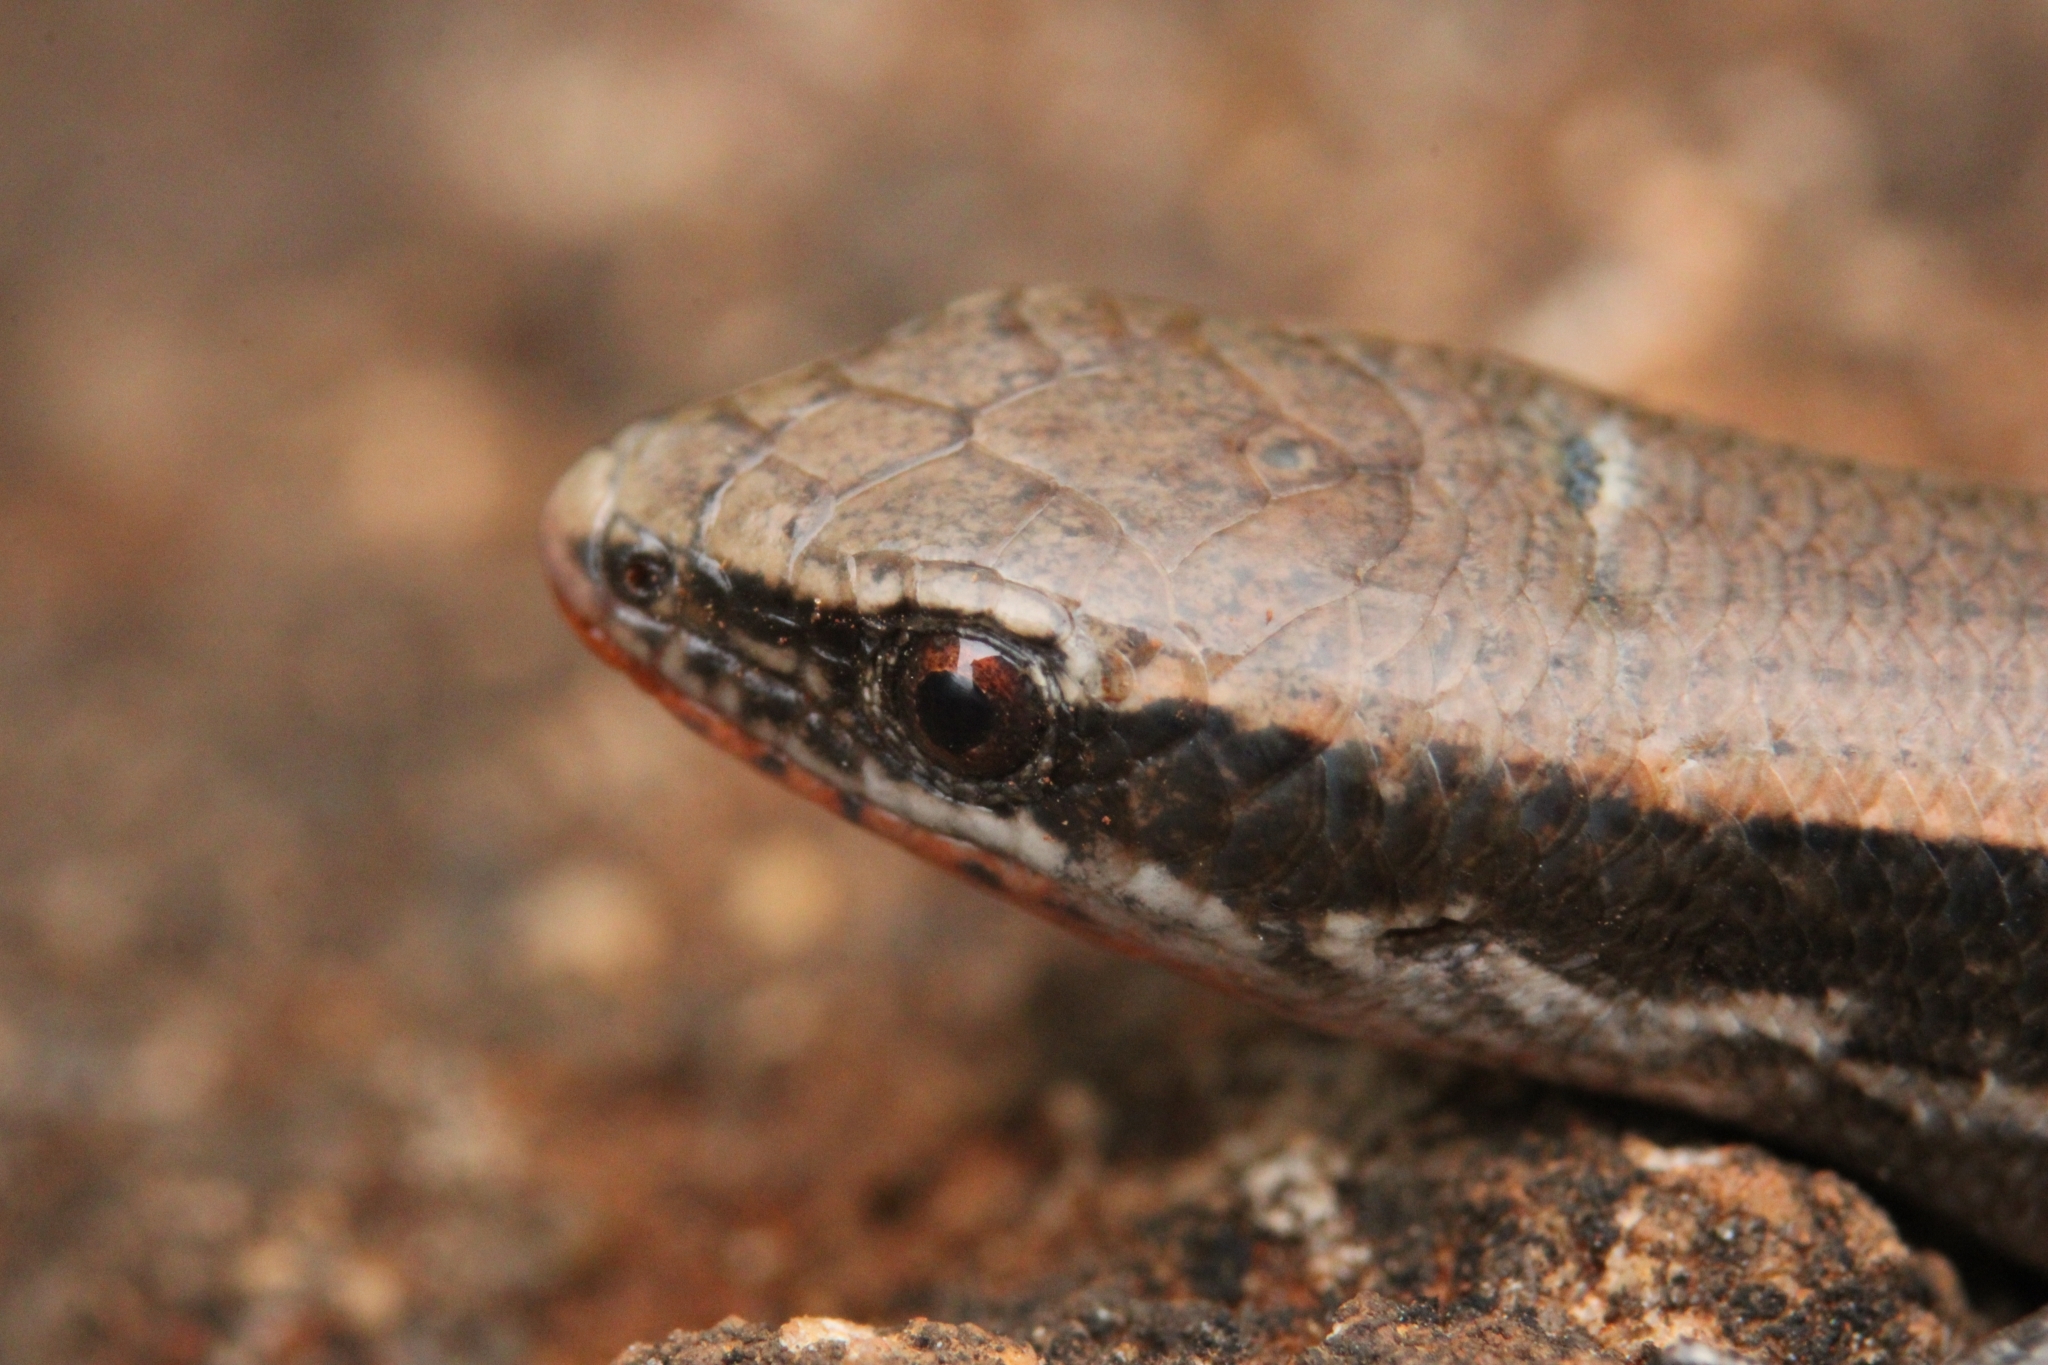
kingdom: Animalia
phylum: Chordata
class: Squamata
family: Scincidae
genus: Panaspis
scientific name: Panaspis wahlbergii
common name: Angolan snake-eyed skink
